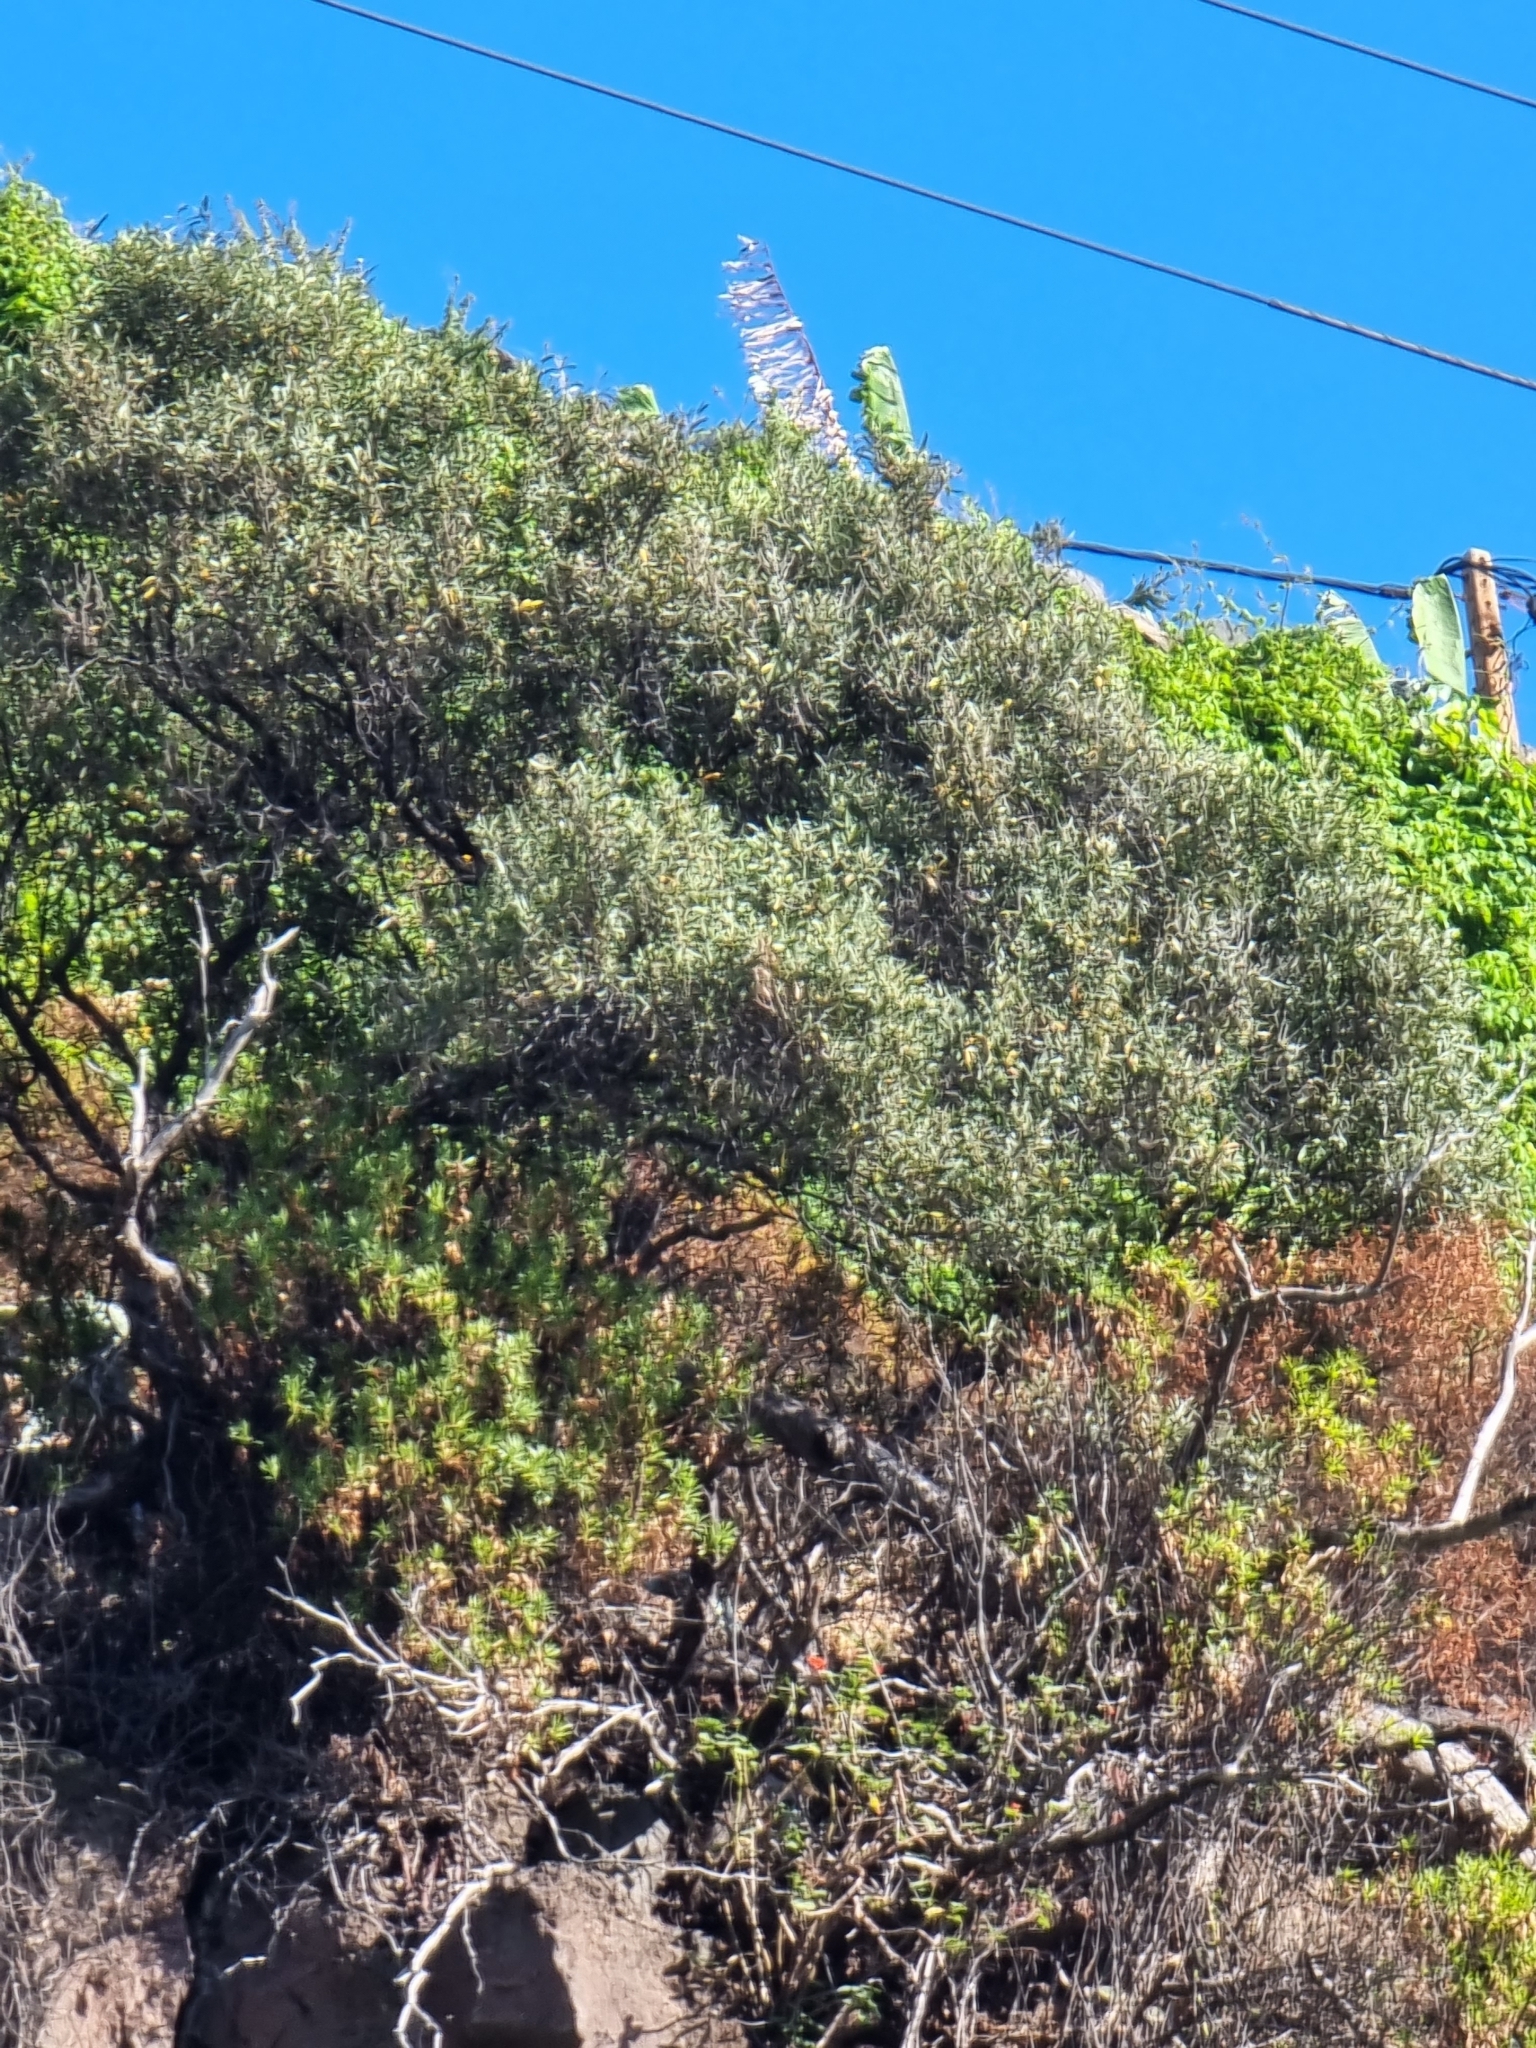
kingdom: Plantae
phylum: Tracheophyta
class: Magnoliopsida
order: Lamiales
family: Oleaceae
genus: Olea
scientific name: Olea europaea
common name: Olive
